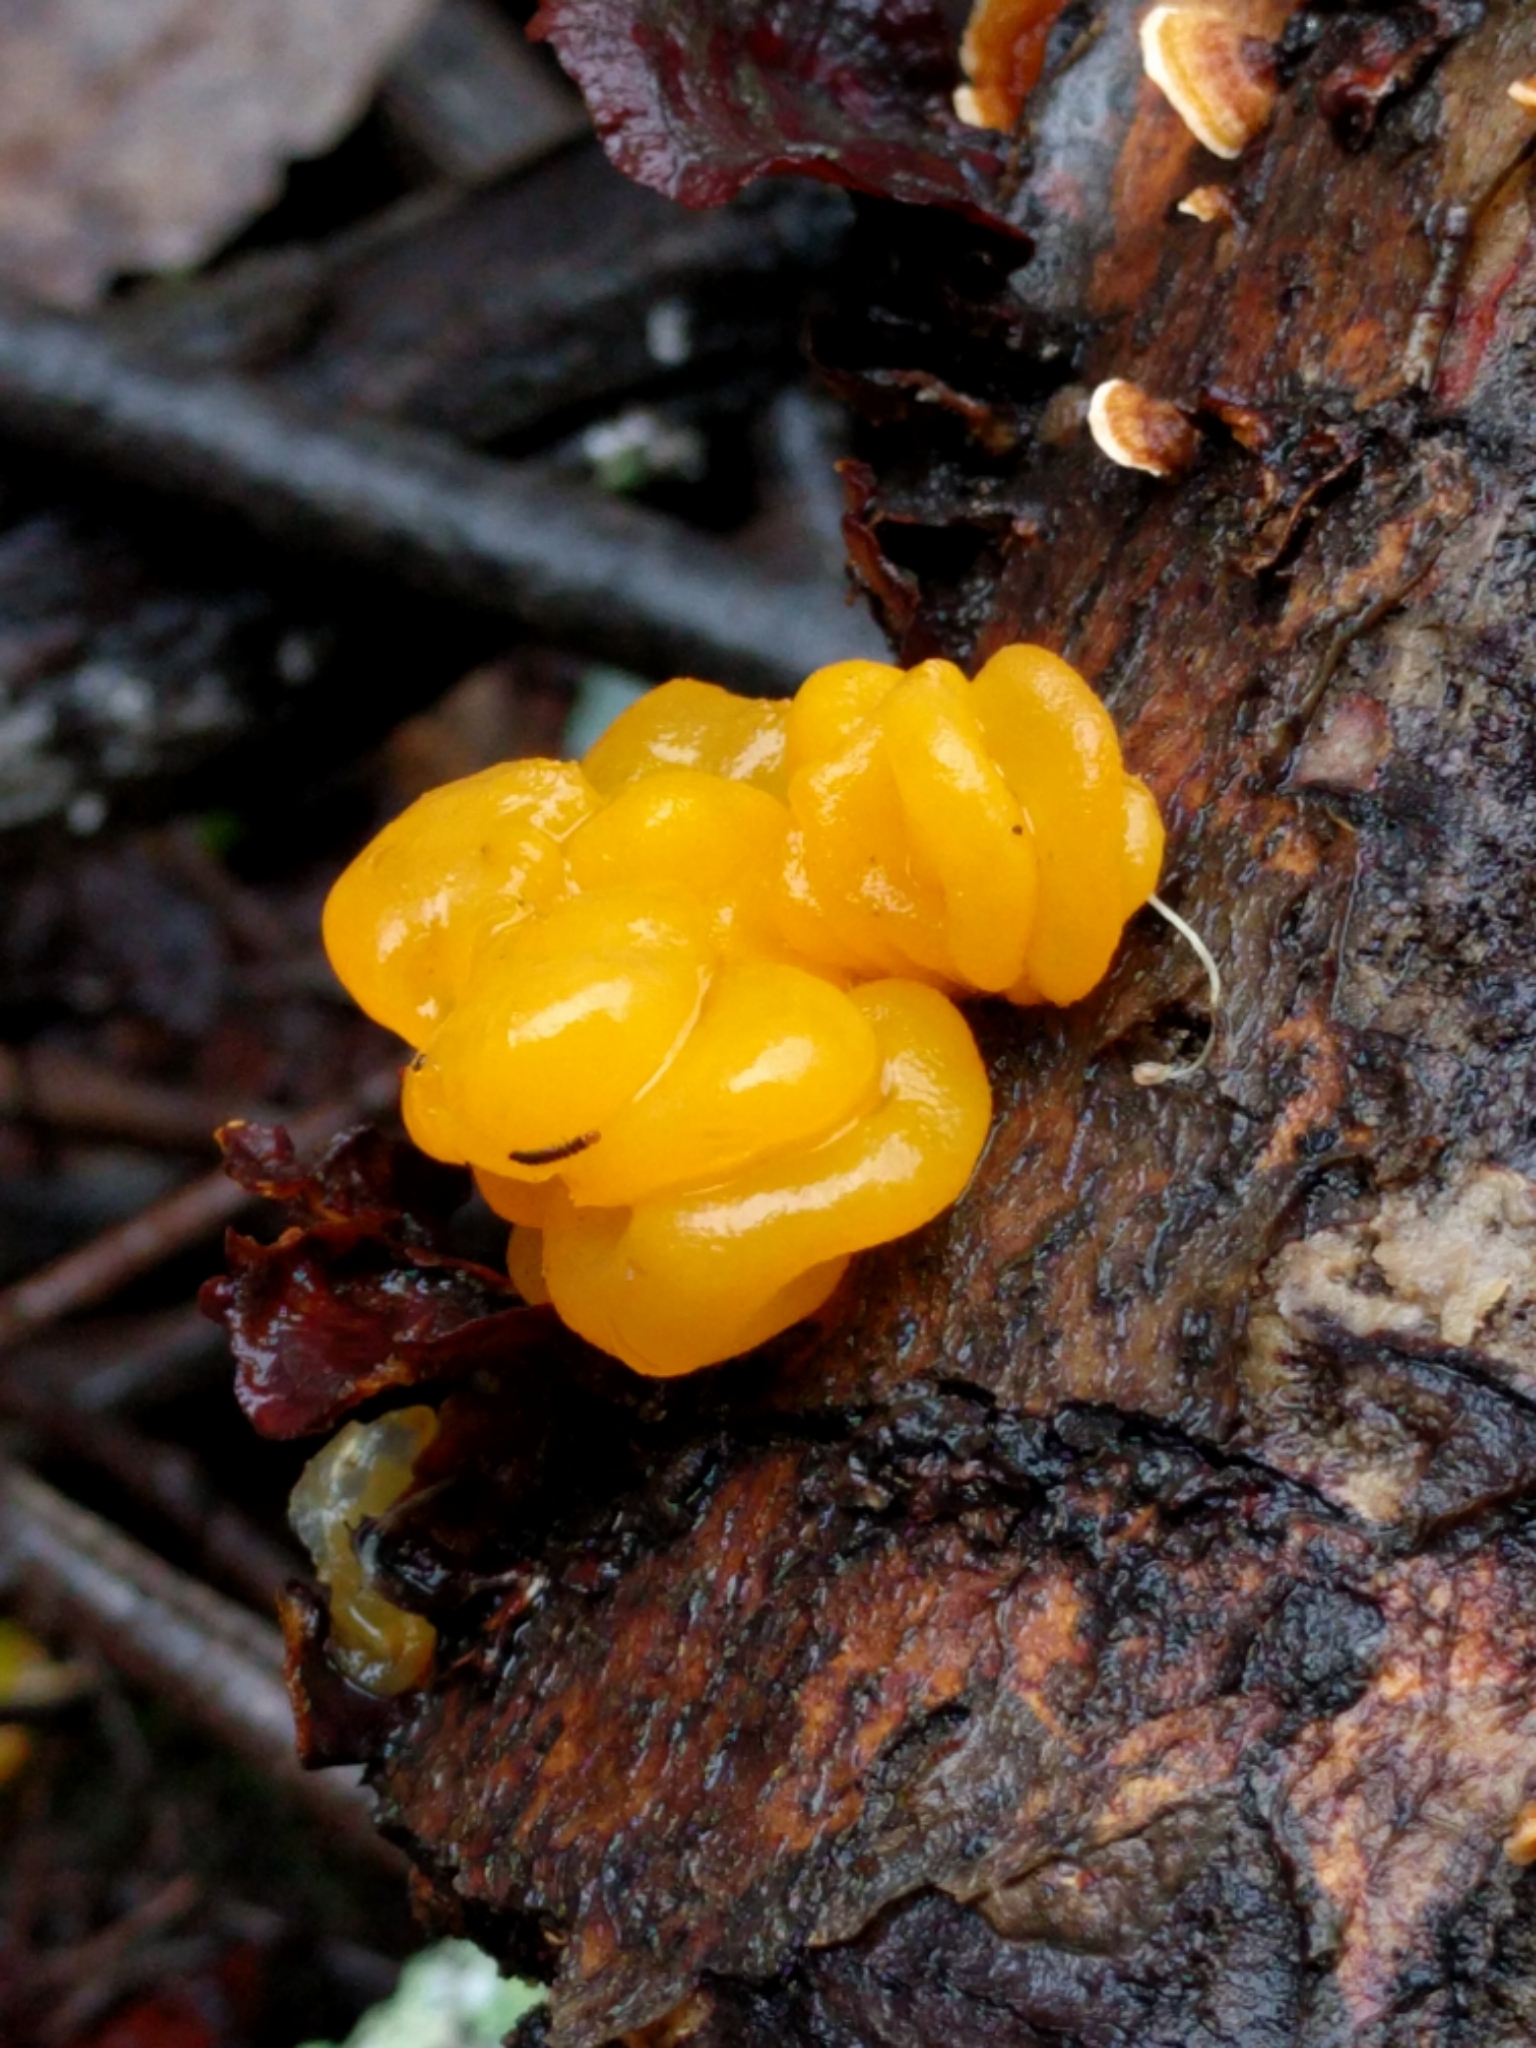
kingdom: Fungi
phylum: Basidiomycota
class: Tremellomycetes
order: Tremellales
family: Naemateliaceae
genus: Naematelia
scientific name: Naematelia aurantia
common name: Golden ear
